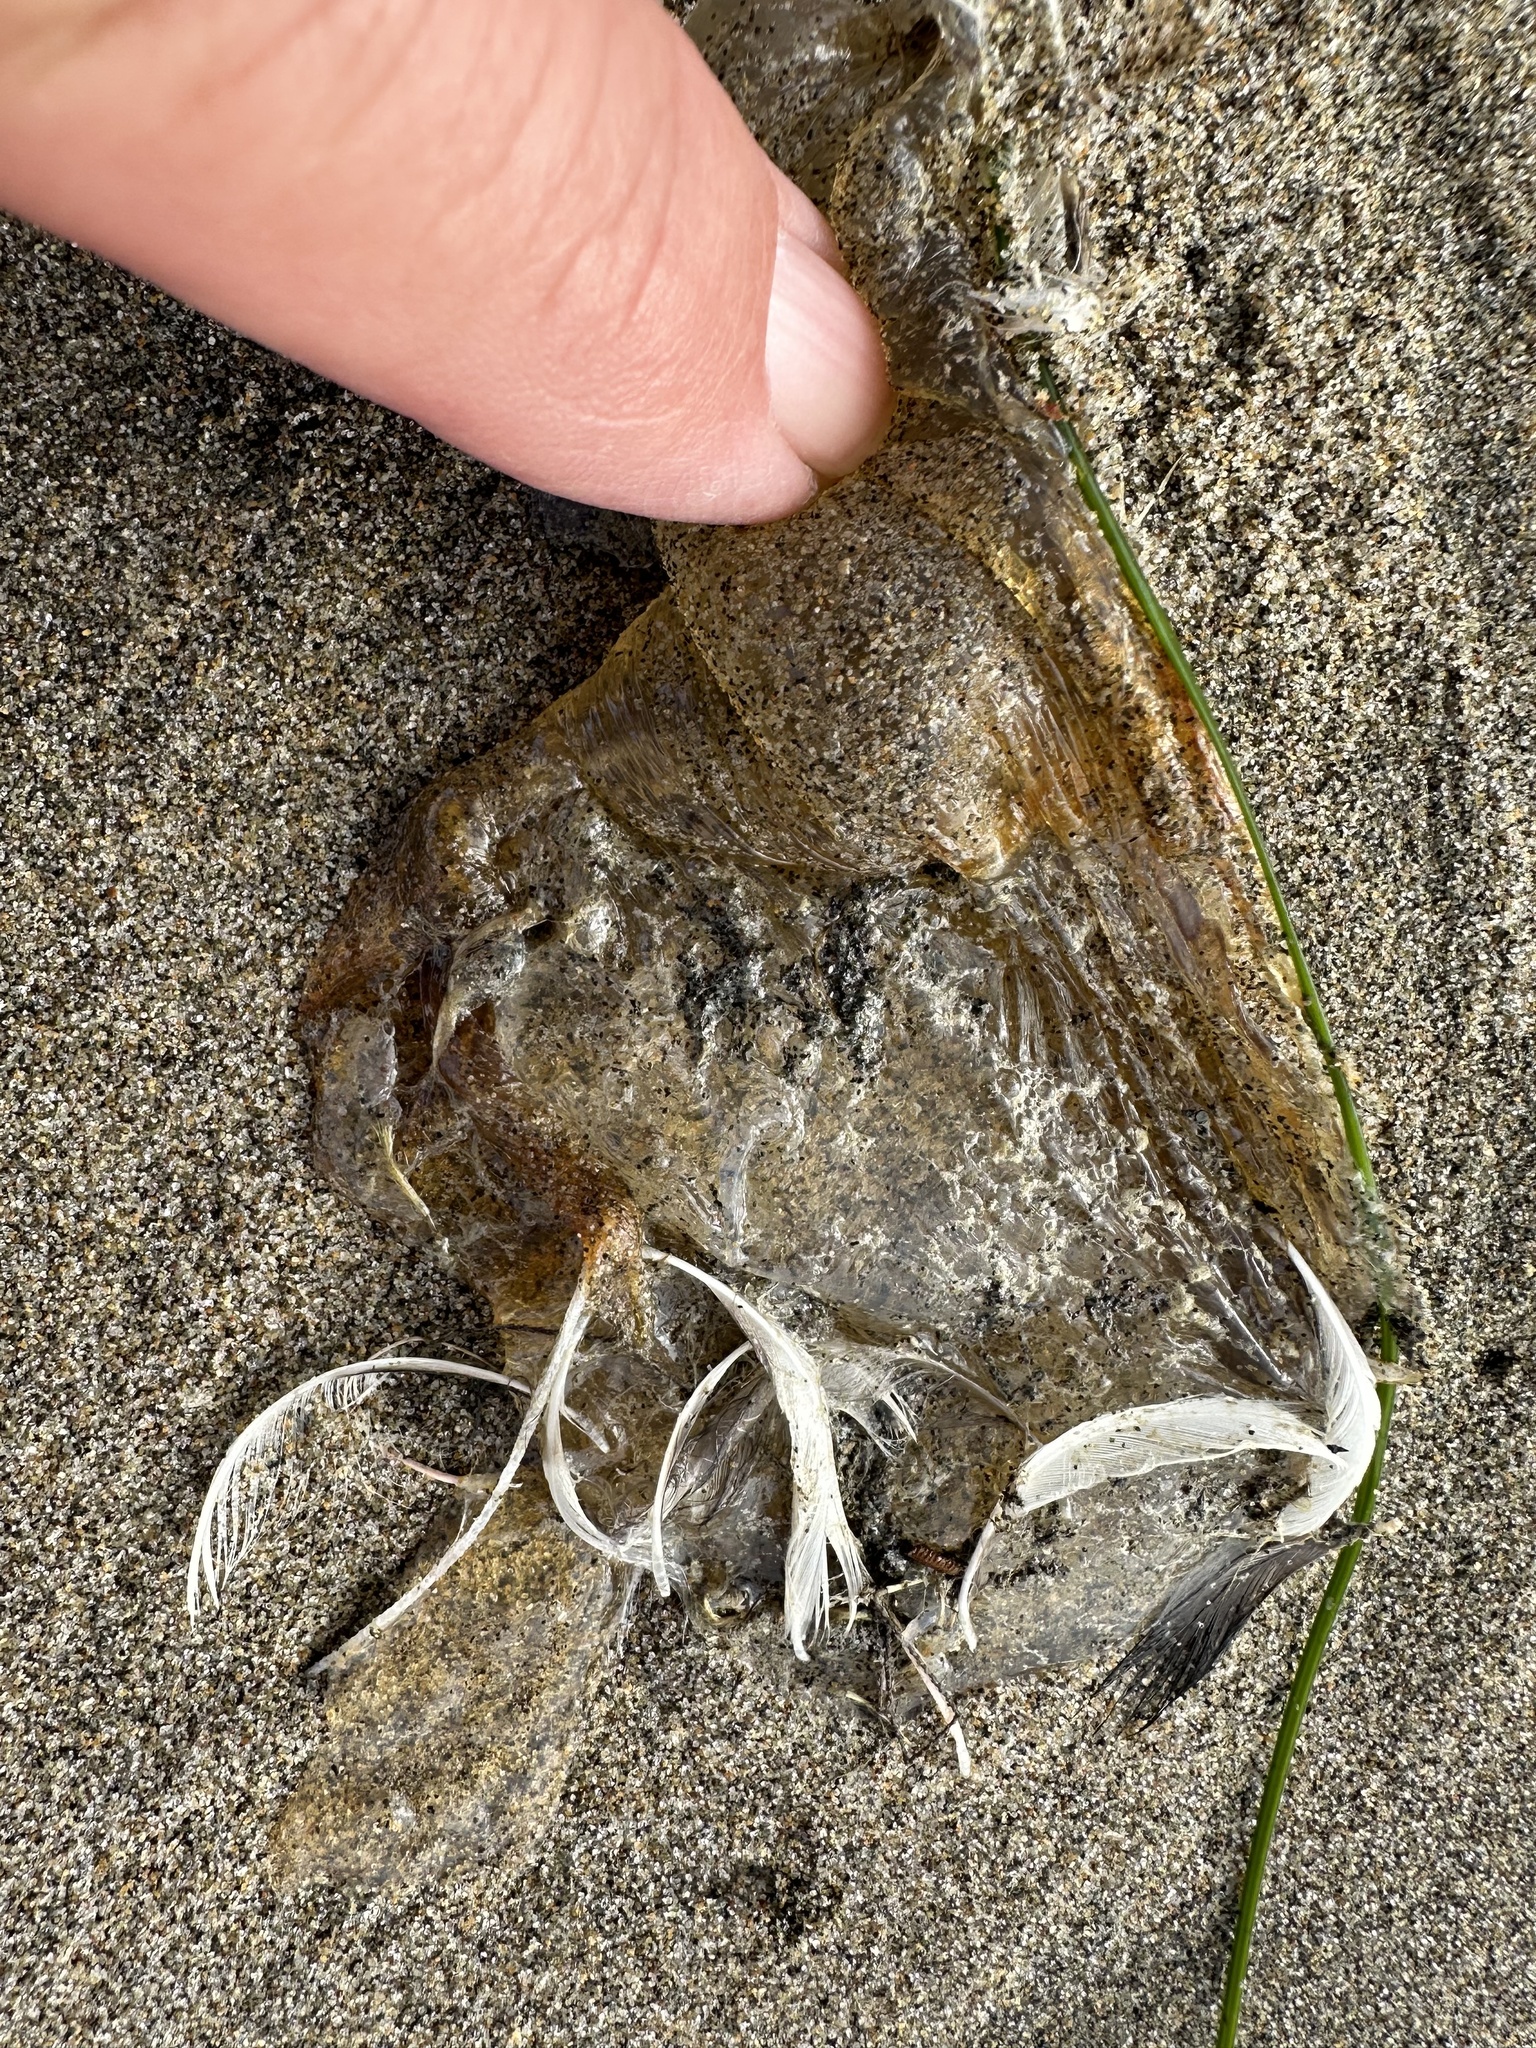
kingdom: Animalia
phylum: Cnidaria
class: Scyphozoa
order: Semaeostomeae
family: Pelagiidae
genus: Chrysaora
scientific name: Chrysaora fuscescens
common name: Sea nettle
